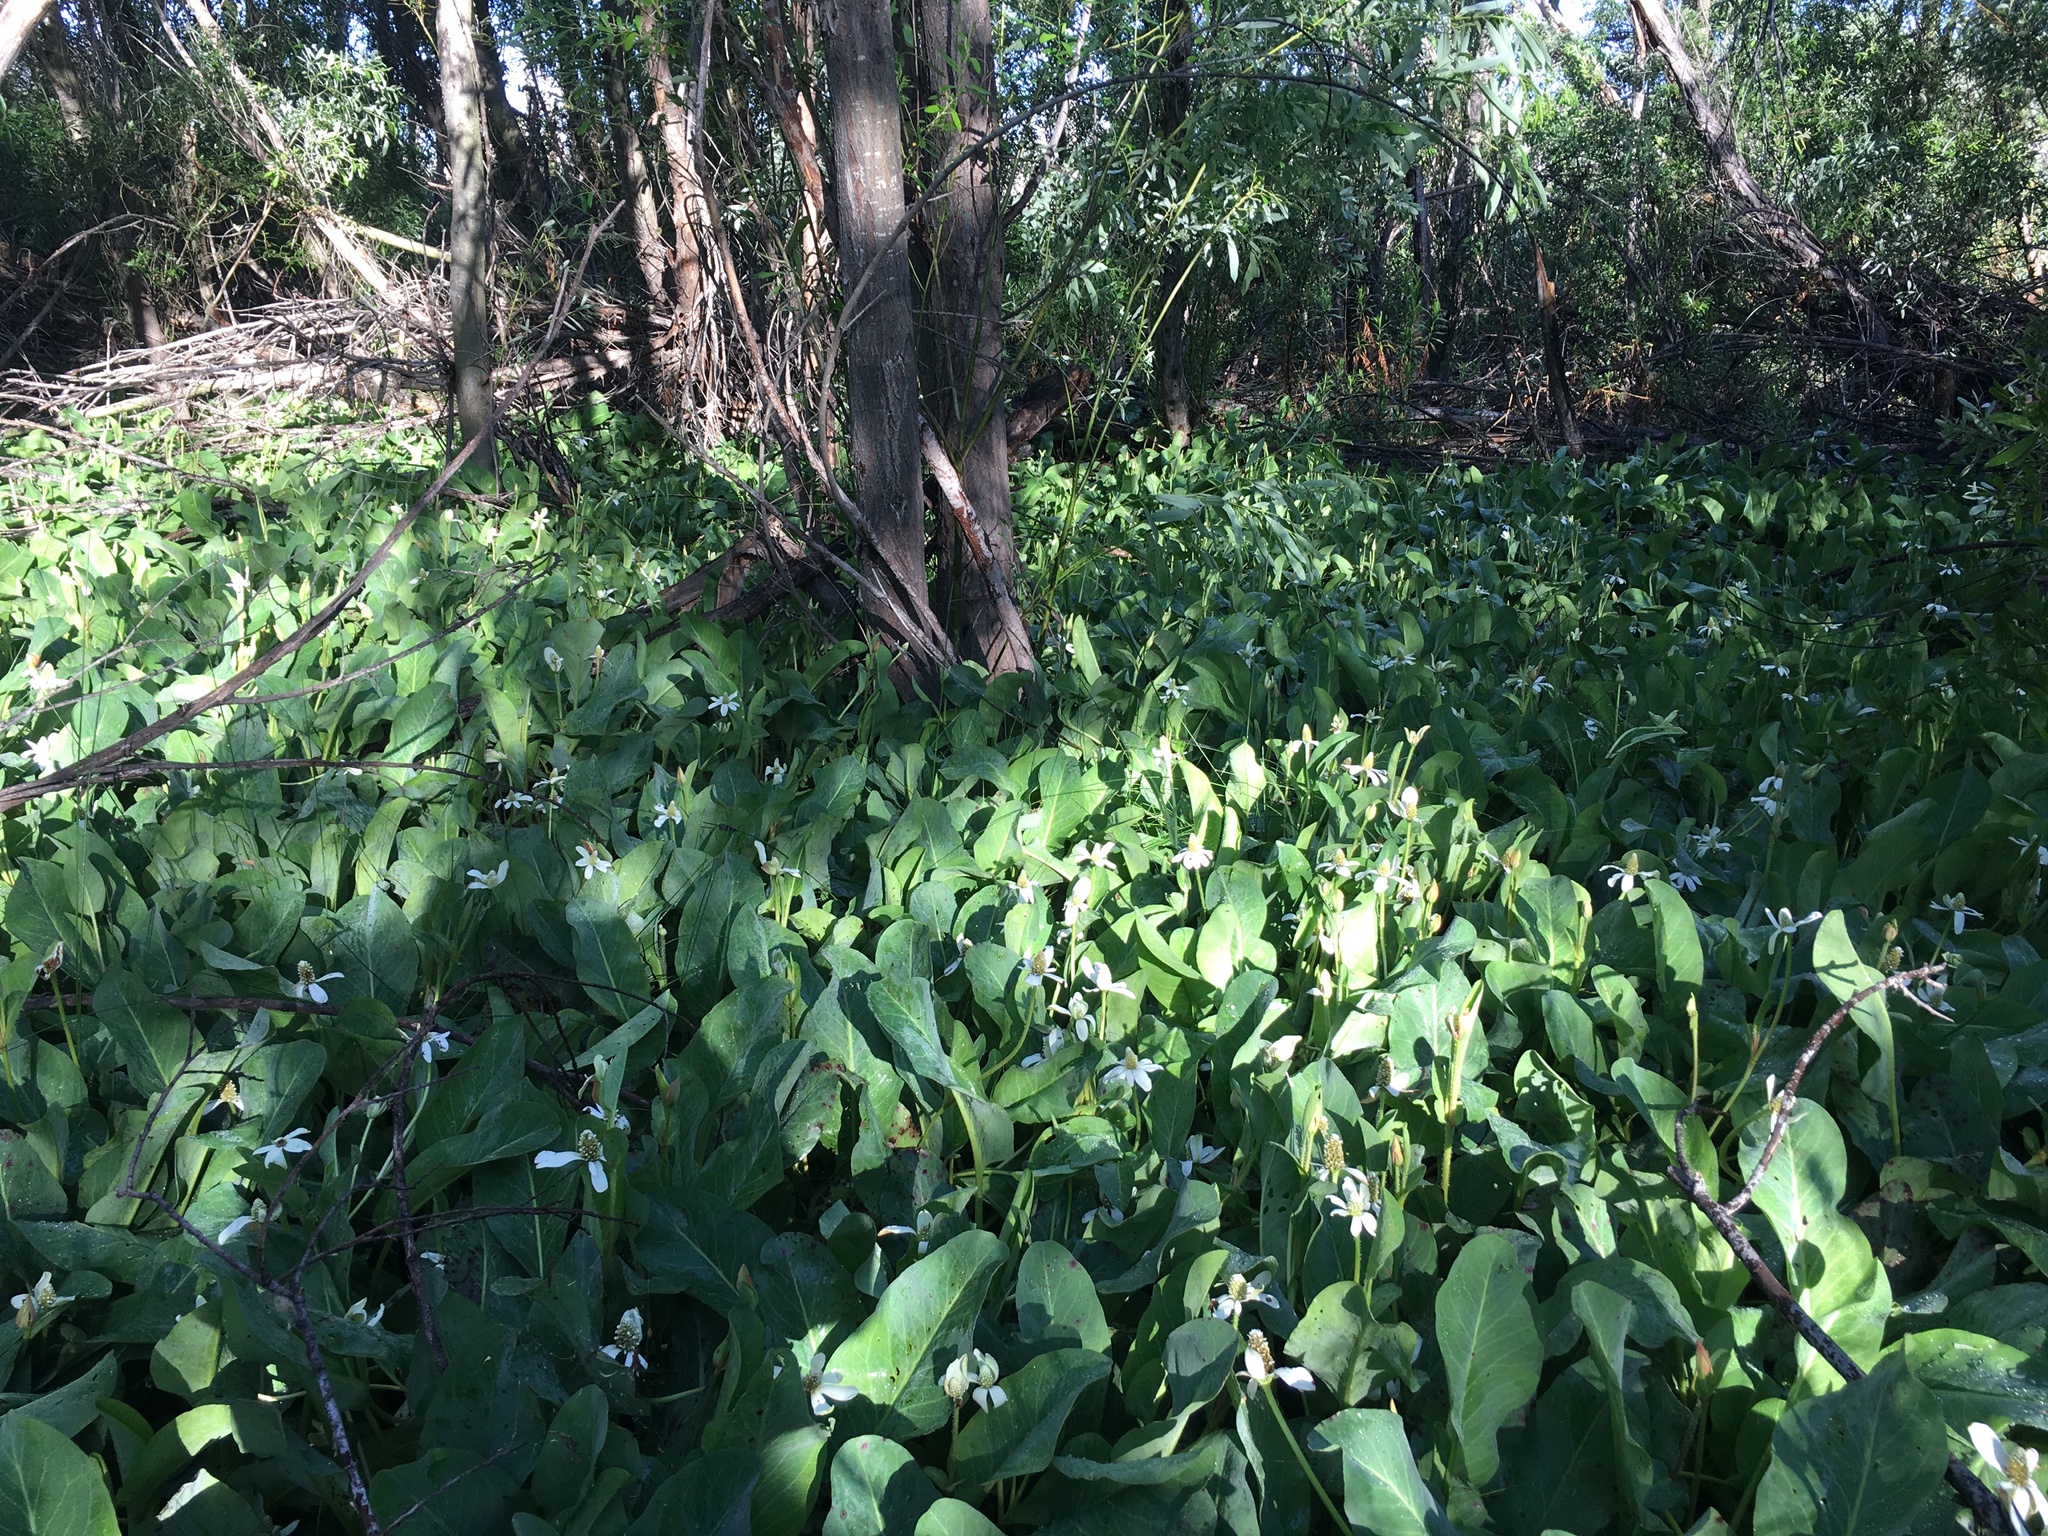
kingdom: Plantae
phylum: Tracheophyta
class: Magnoliopsida
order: Piperales
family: Saururaceae
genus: Anemopsis
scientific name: Anemopsis californica
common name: Apache-beads
